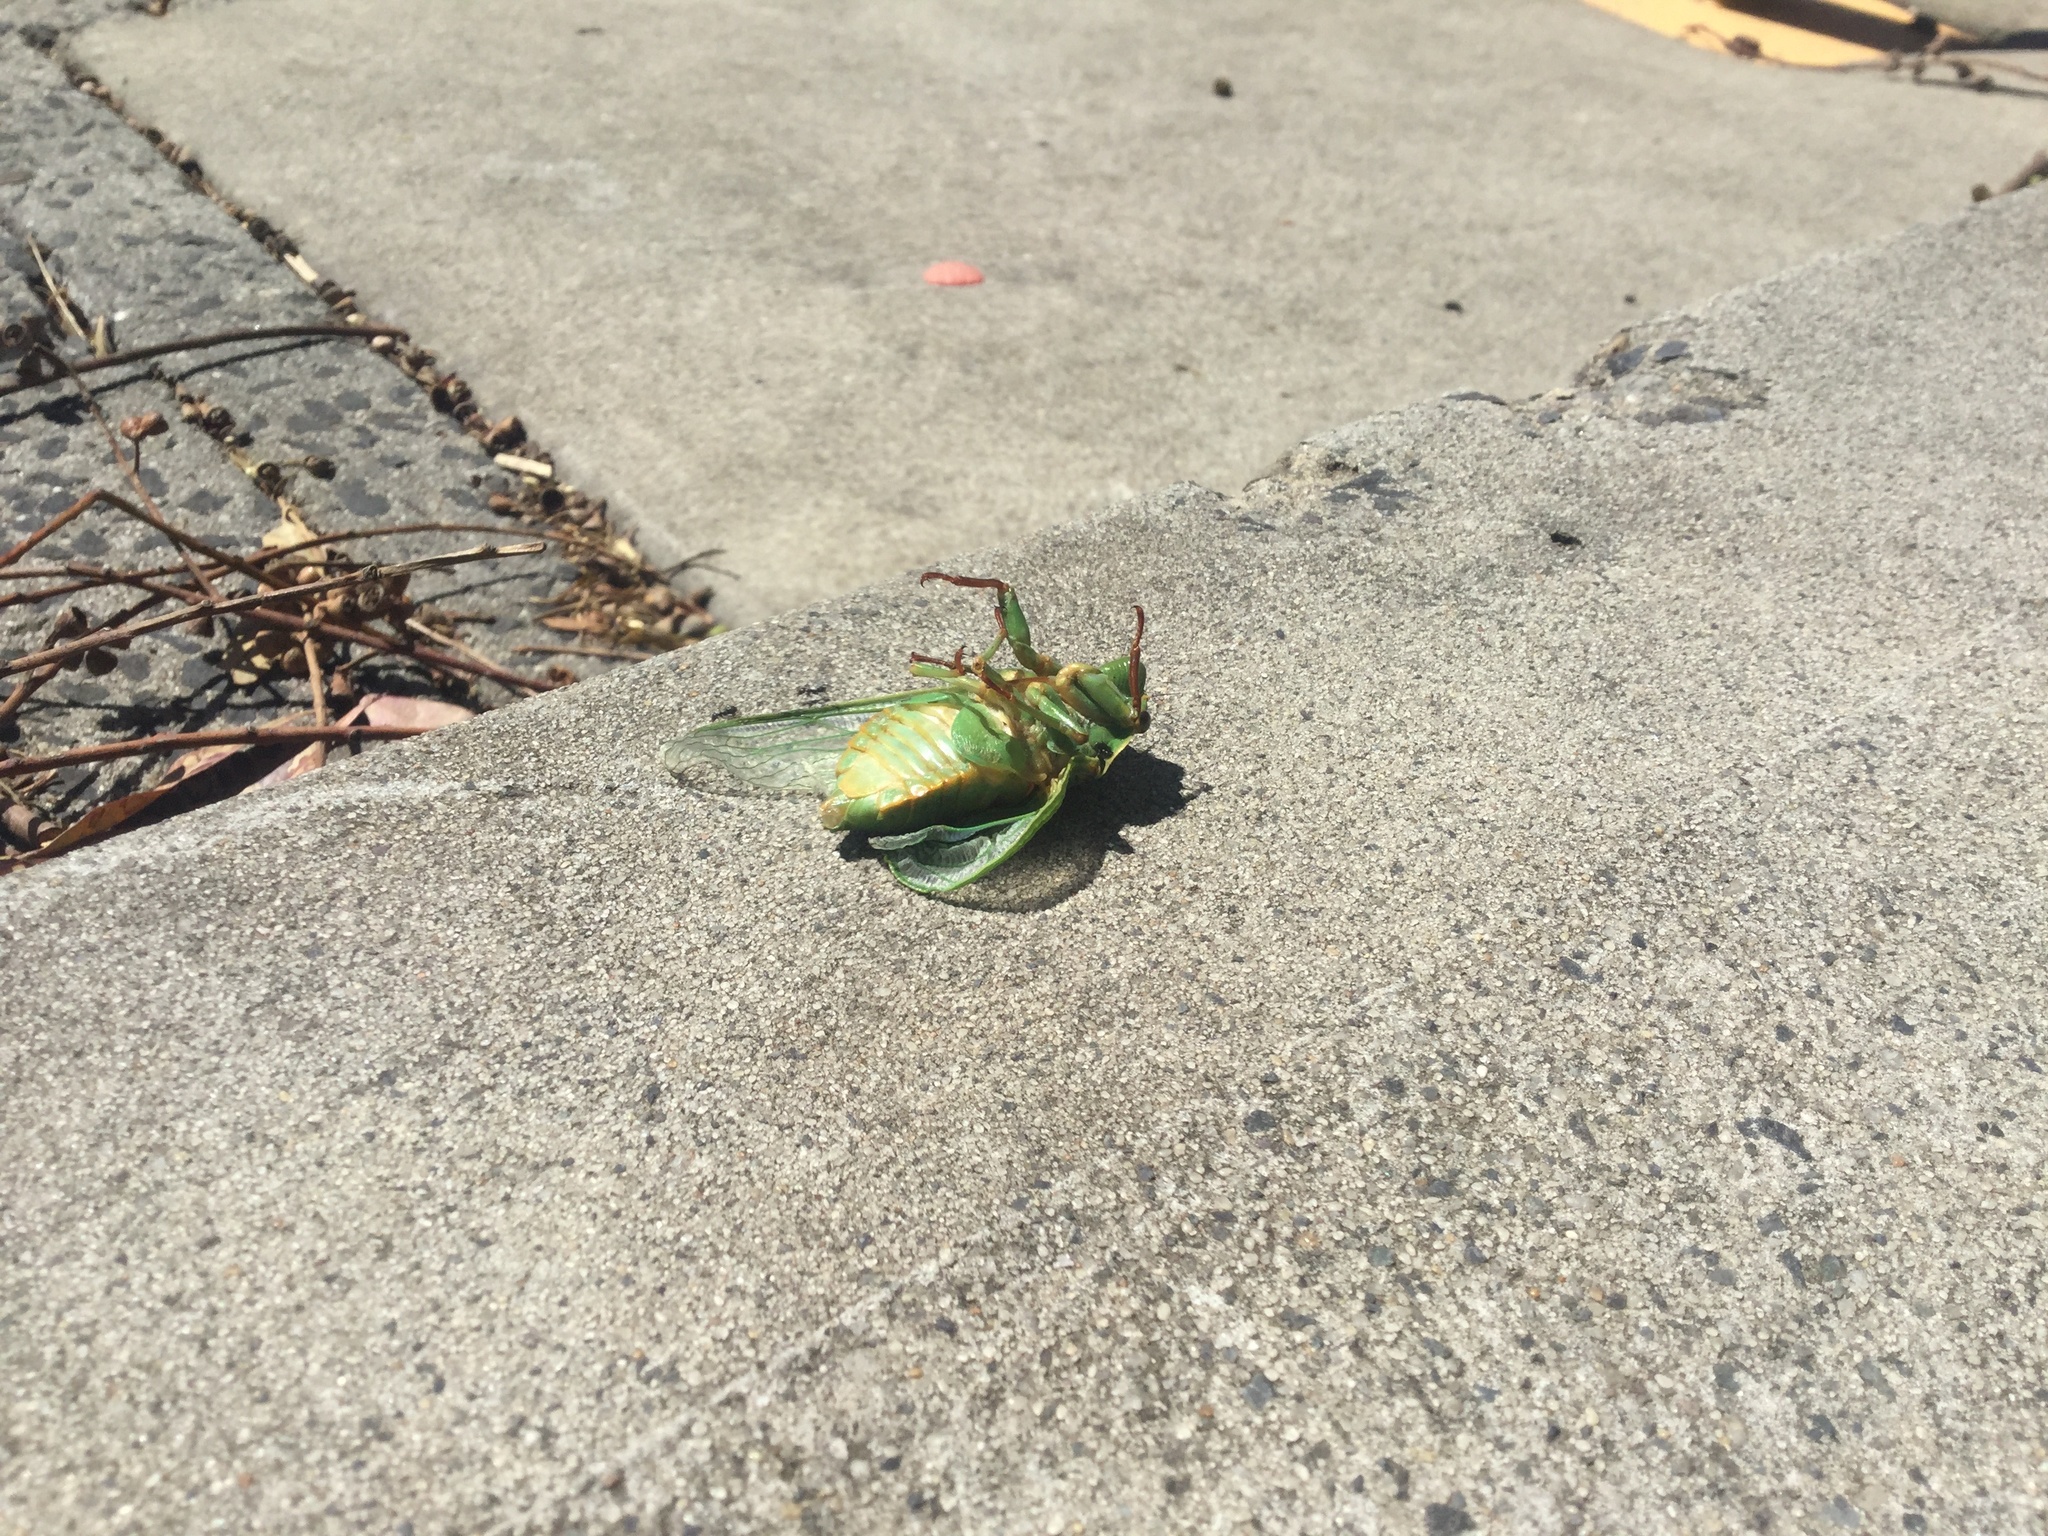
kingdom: Animalia
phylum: Arthropoda
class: Insecta
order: Hemiptera
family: Cicadidae
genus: Cyclochila
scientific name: Cyclochila australasiae
